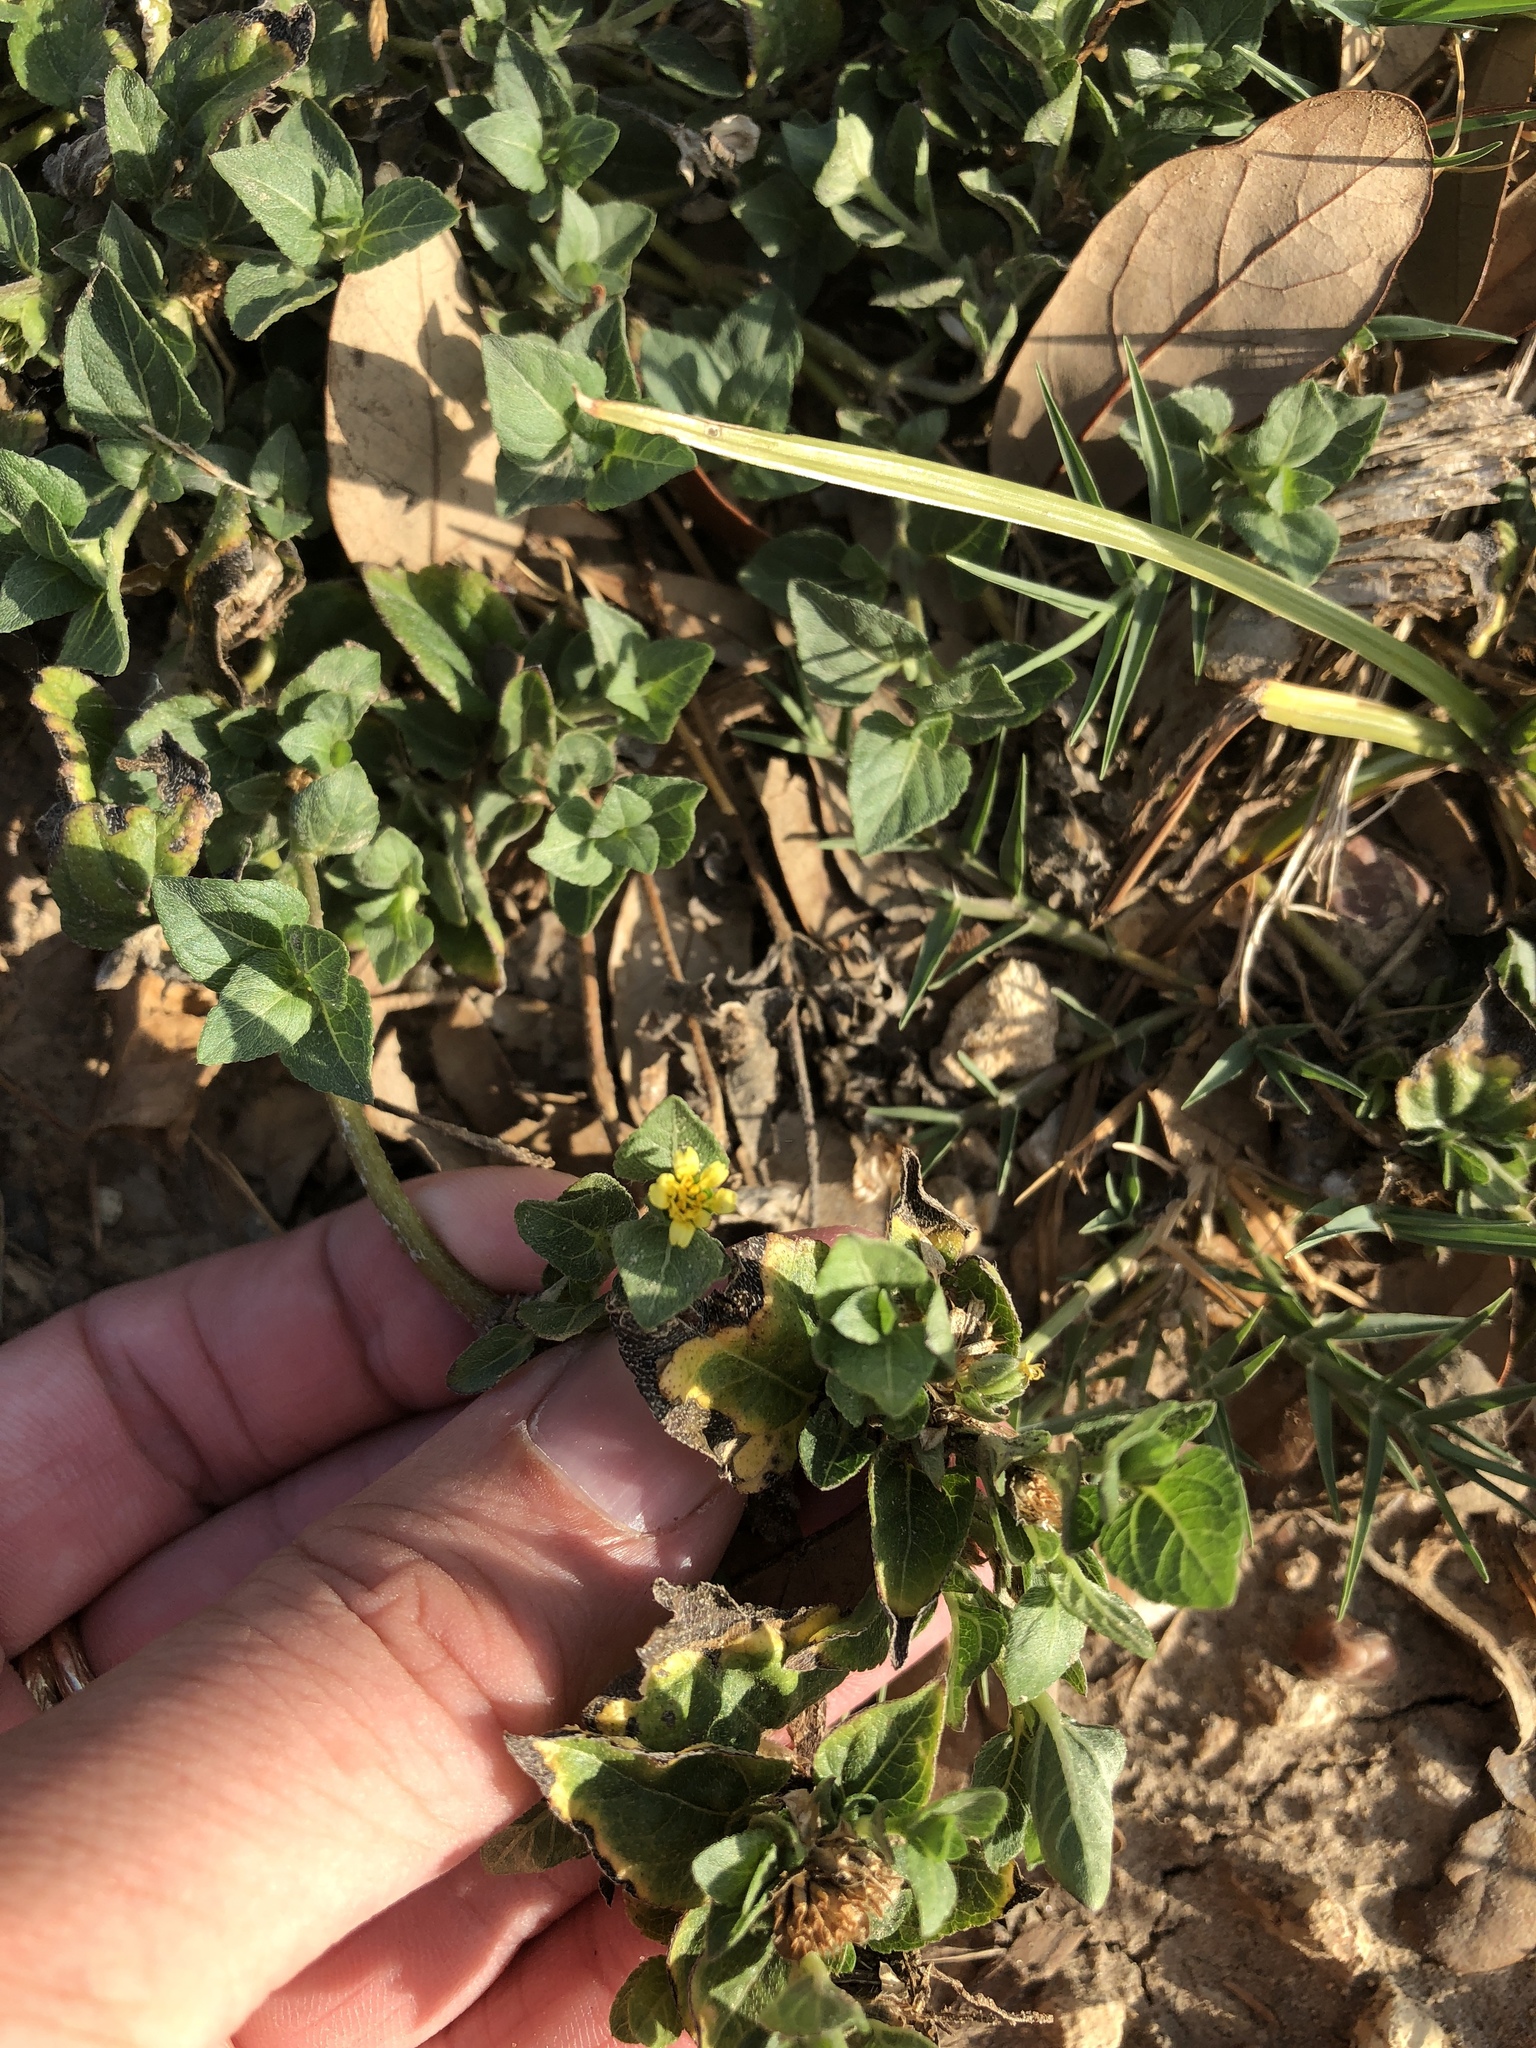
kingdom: Plantae
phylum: Tracheophyta
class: Magnoliopsida
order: Asterales
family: Asteraceae
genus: Calyptocarpus
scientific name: Calyptocarpus vialis
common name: Straggler daisy
